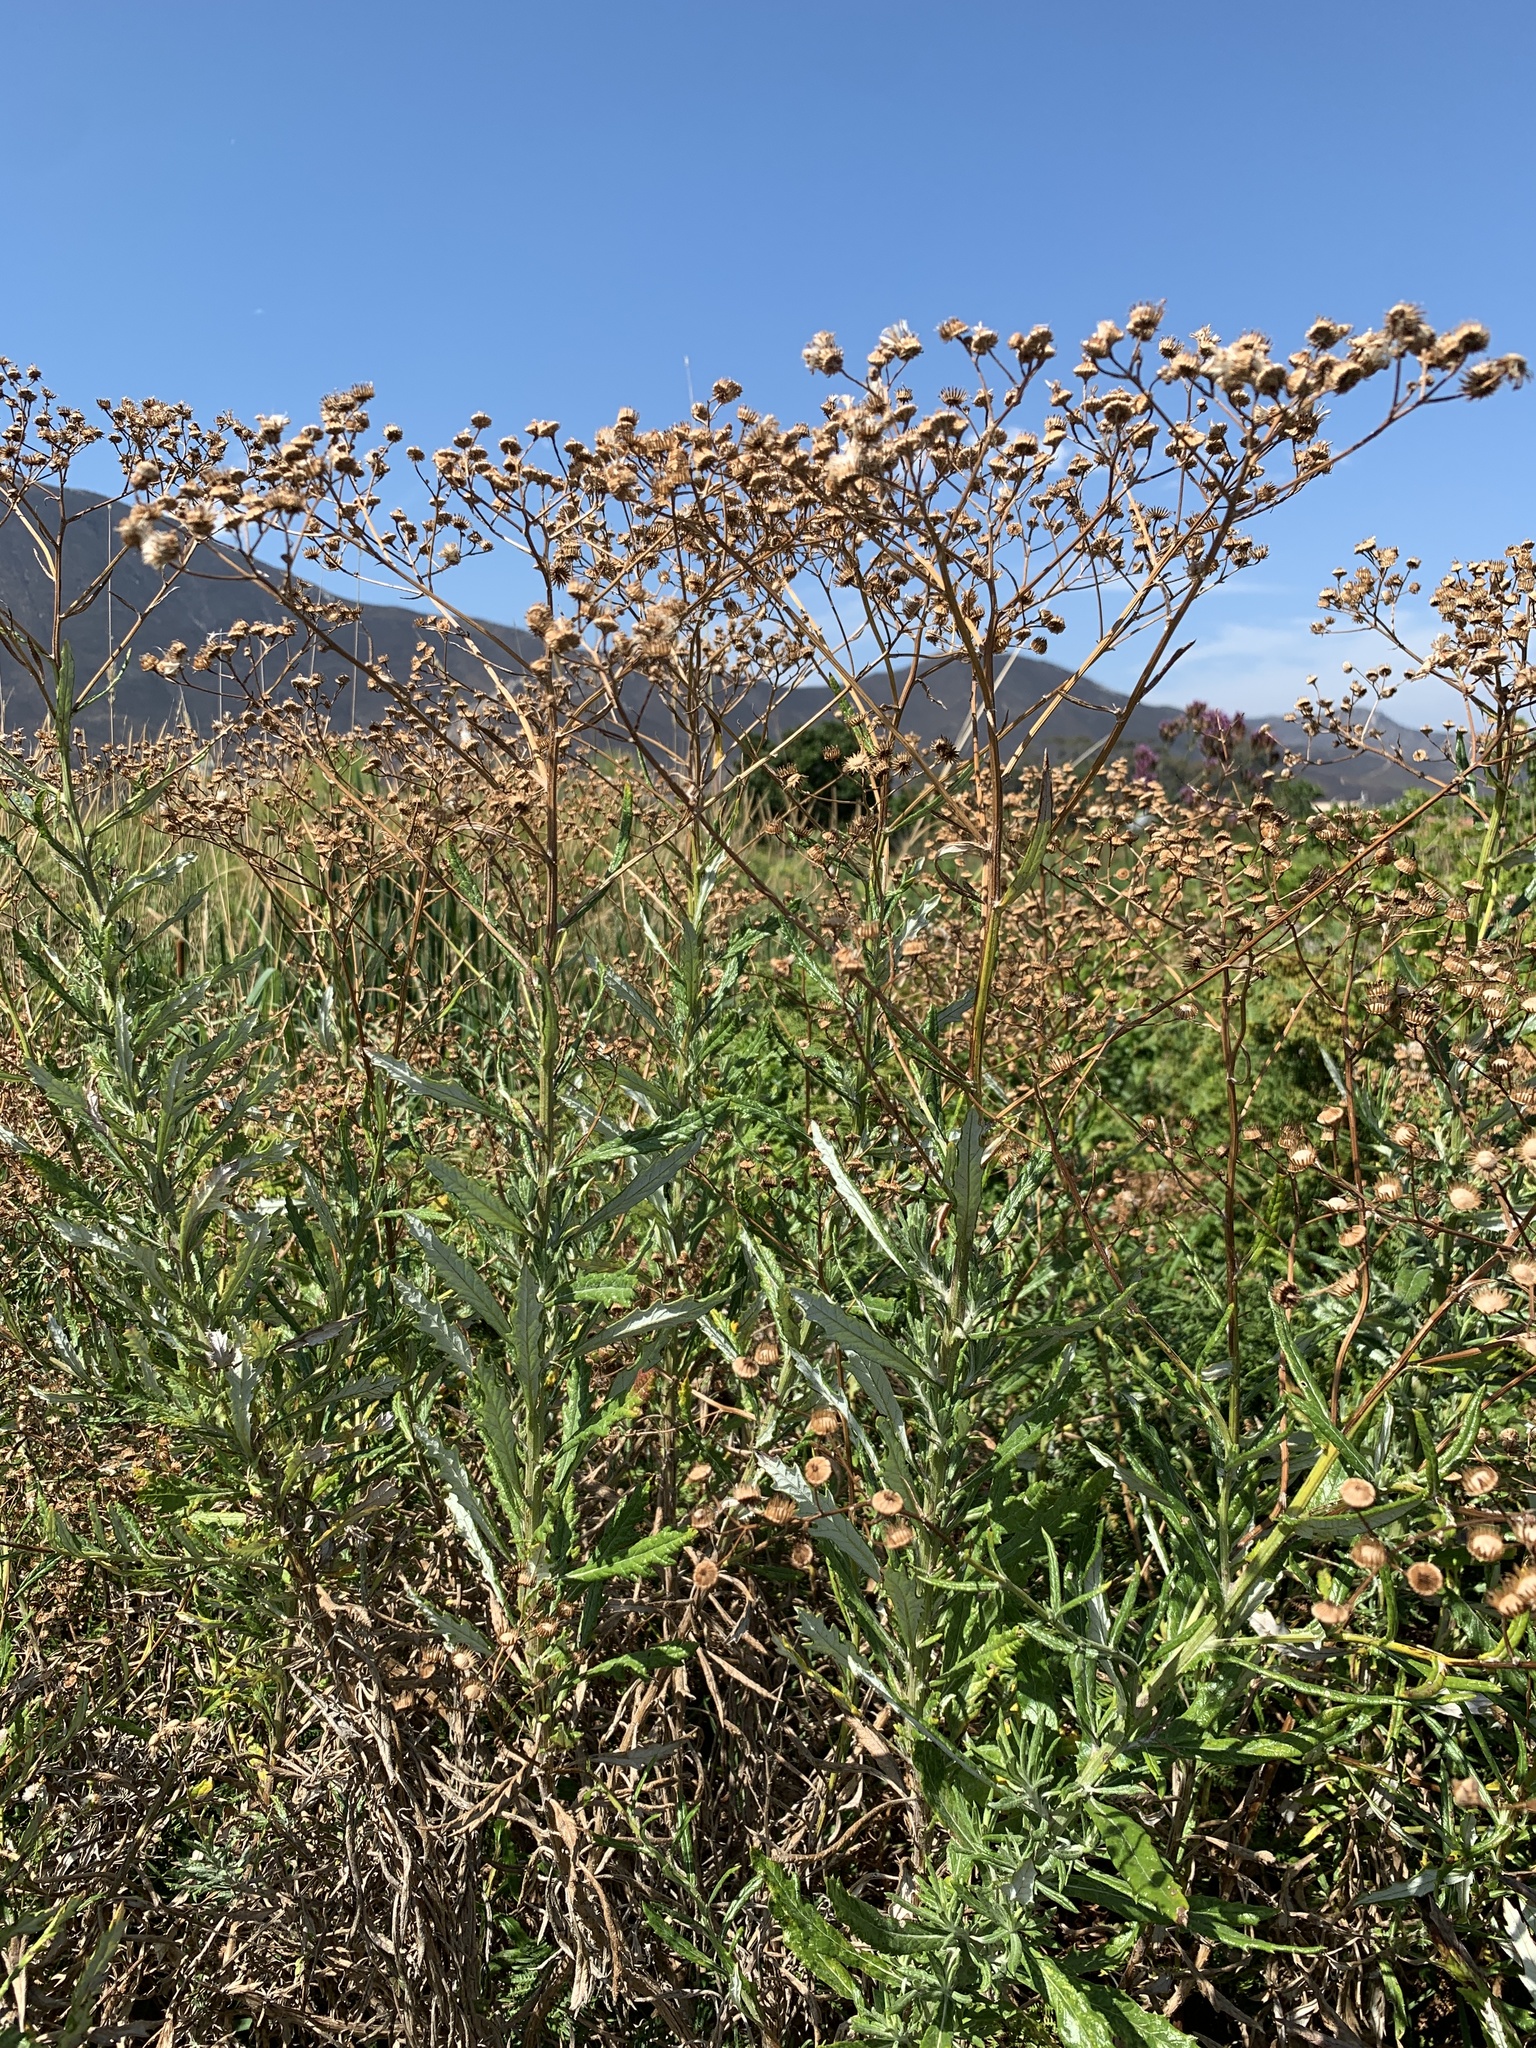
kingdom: Plantae
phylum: Tracheophyta
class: Magnoliopsida
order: Asterales
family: Asteraceae
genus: Senecio
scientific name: Senecio pterophorus
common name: Shoddy ragwort
